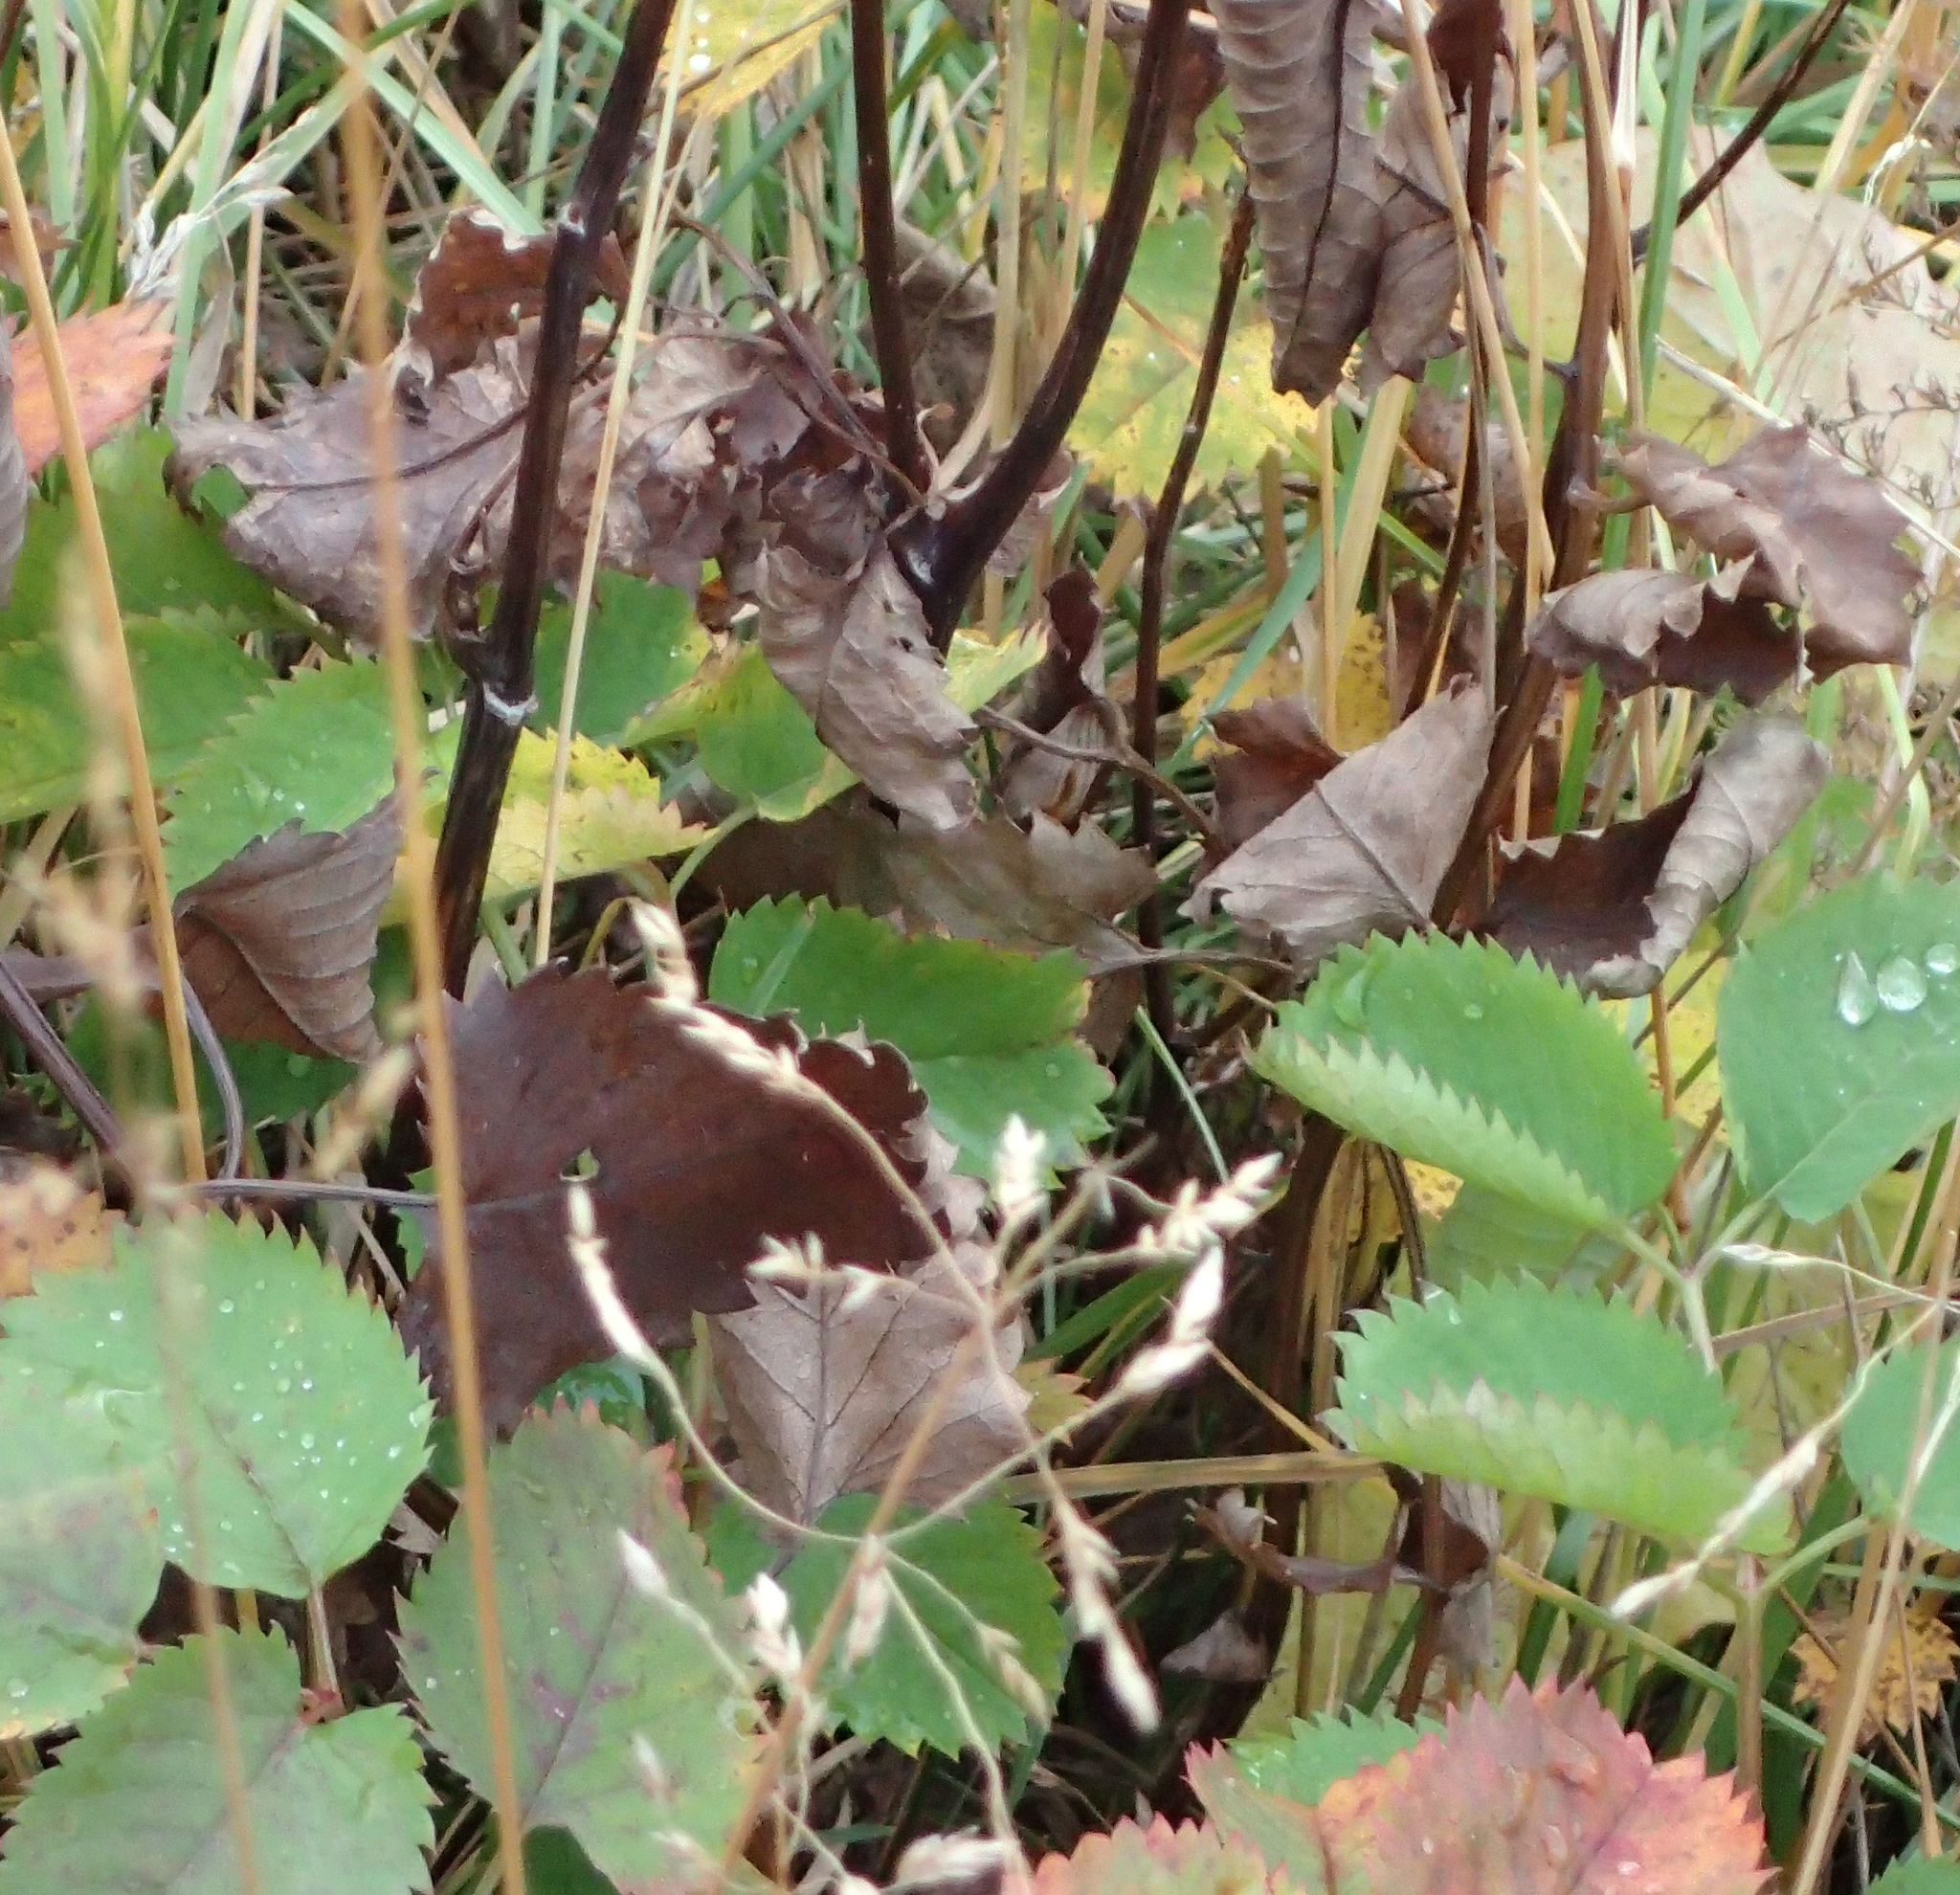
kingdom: Plantae
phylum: Tracheophyta
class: Magnoliopsida
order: Rosales
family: Rosaceae
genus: Sanguisorba
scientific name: Sanguisorba stipulata
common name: Sitka burnet
